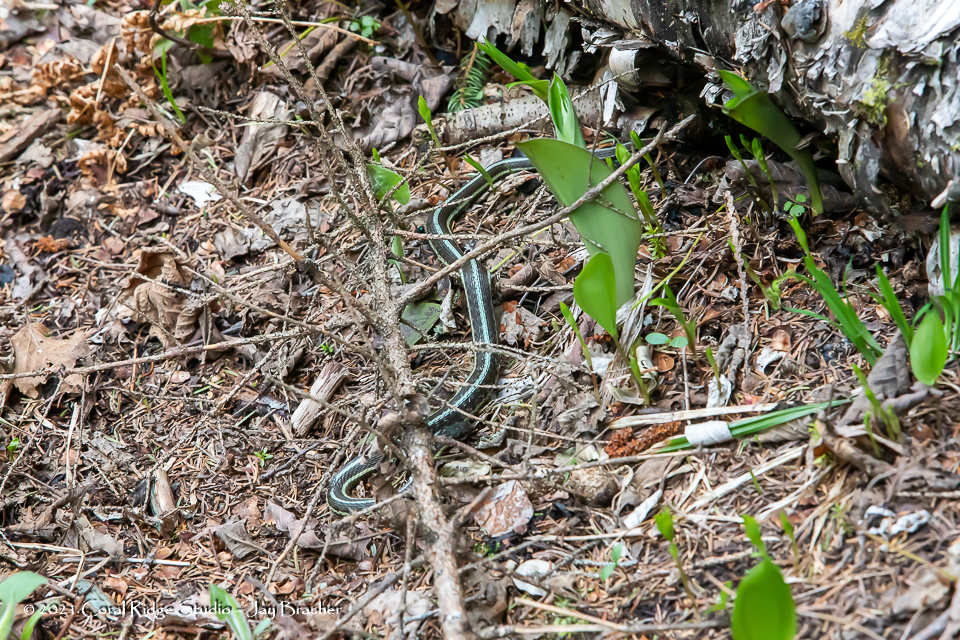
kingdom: Animalia
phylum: Chordata
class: Squamata
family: Colubridae
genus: Thamnophis
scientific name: Thamnophis sirtalis
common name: Common garter snake
